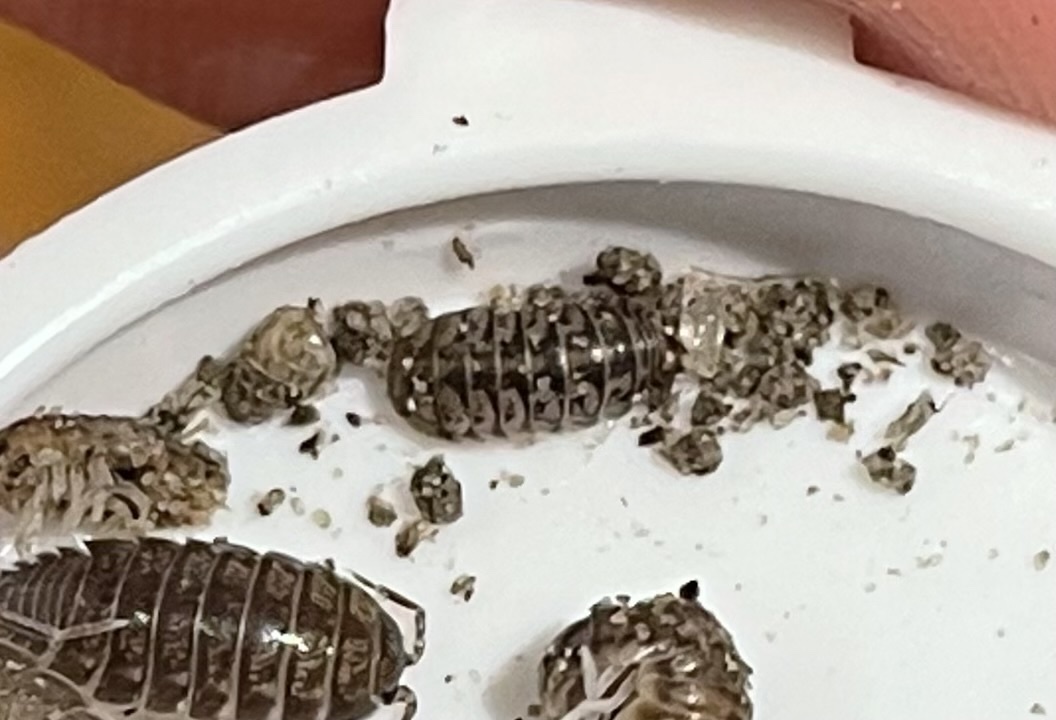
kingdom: Animalia
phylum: Arthropoda
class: Malacostraca
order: Isopoda
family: Armadillidae
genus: Venezillo
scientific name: Venezillo parvus
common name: Pillbug
